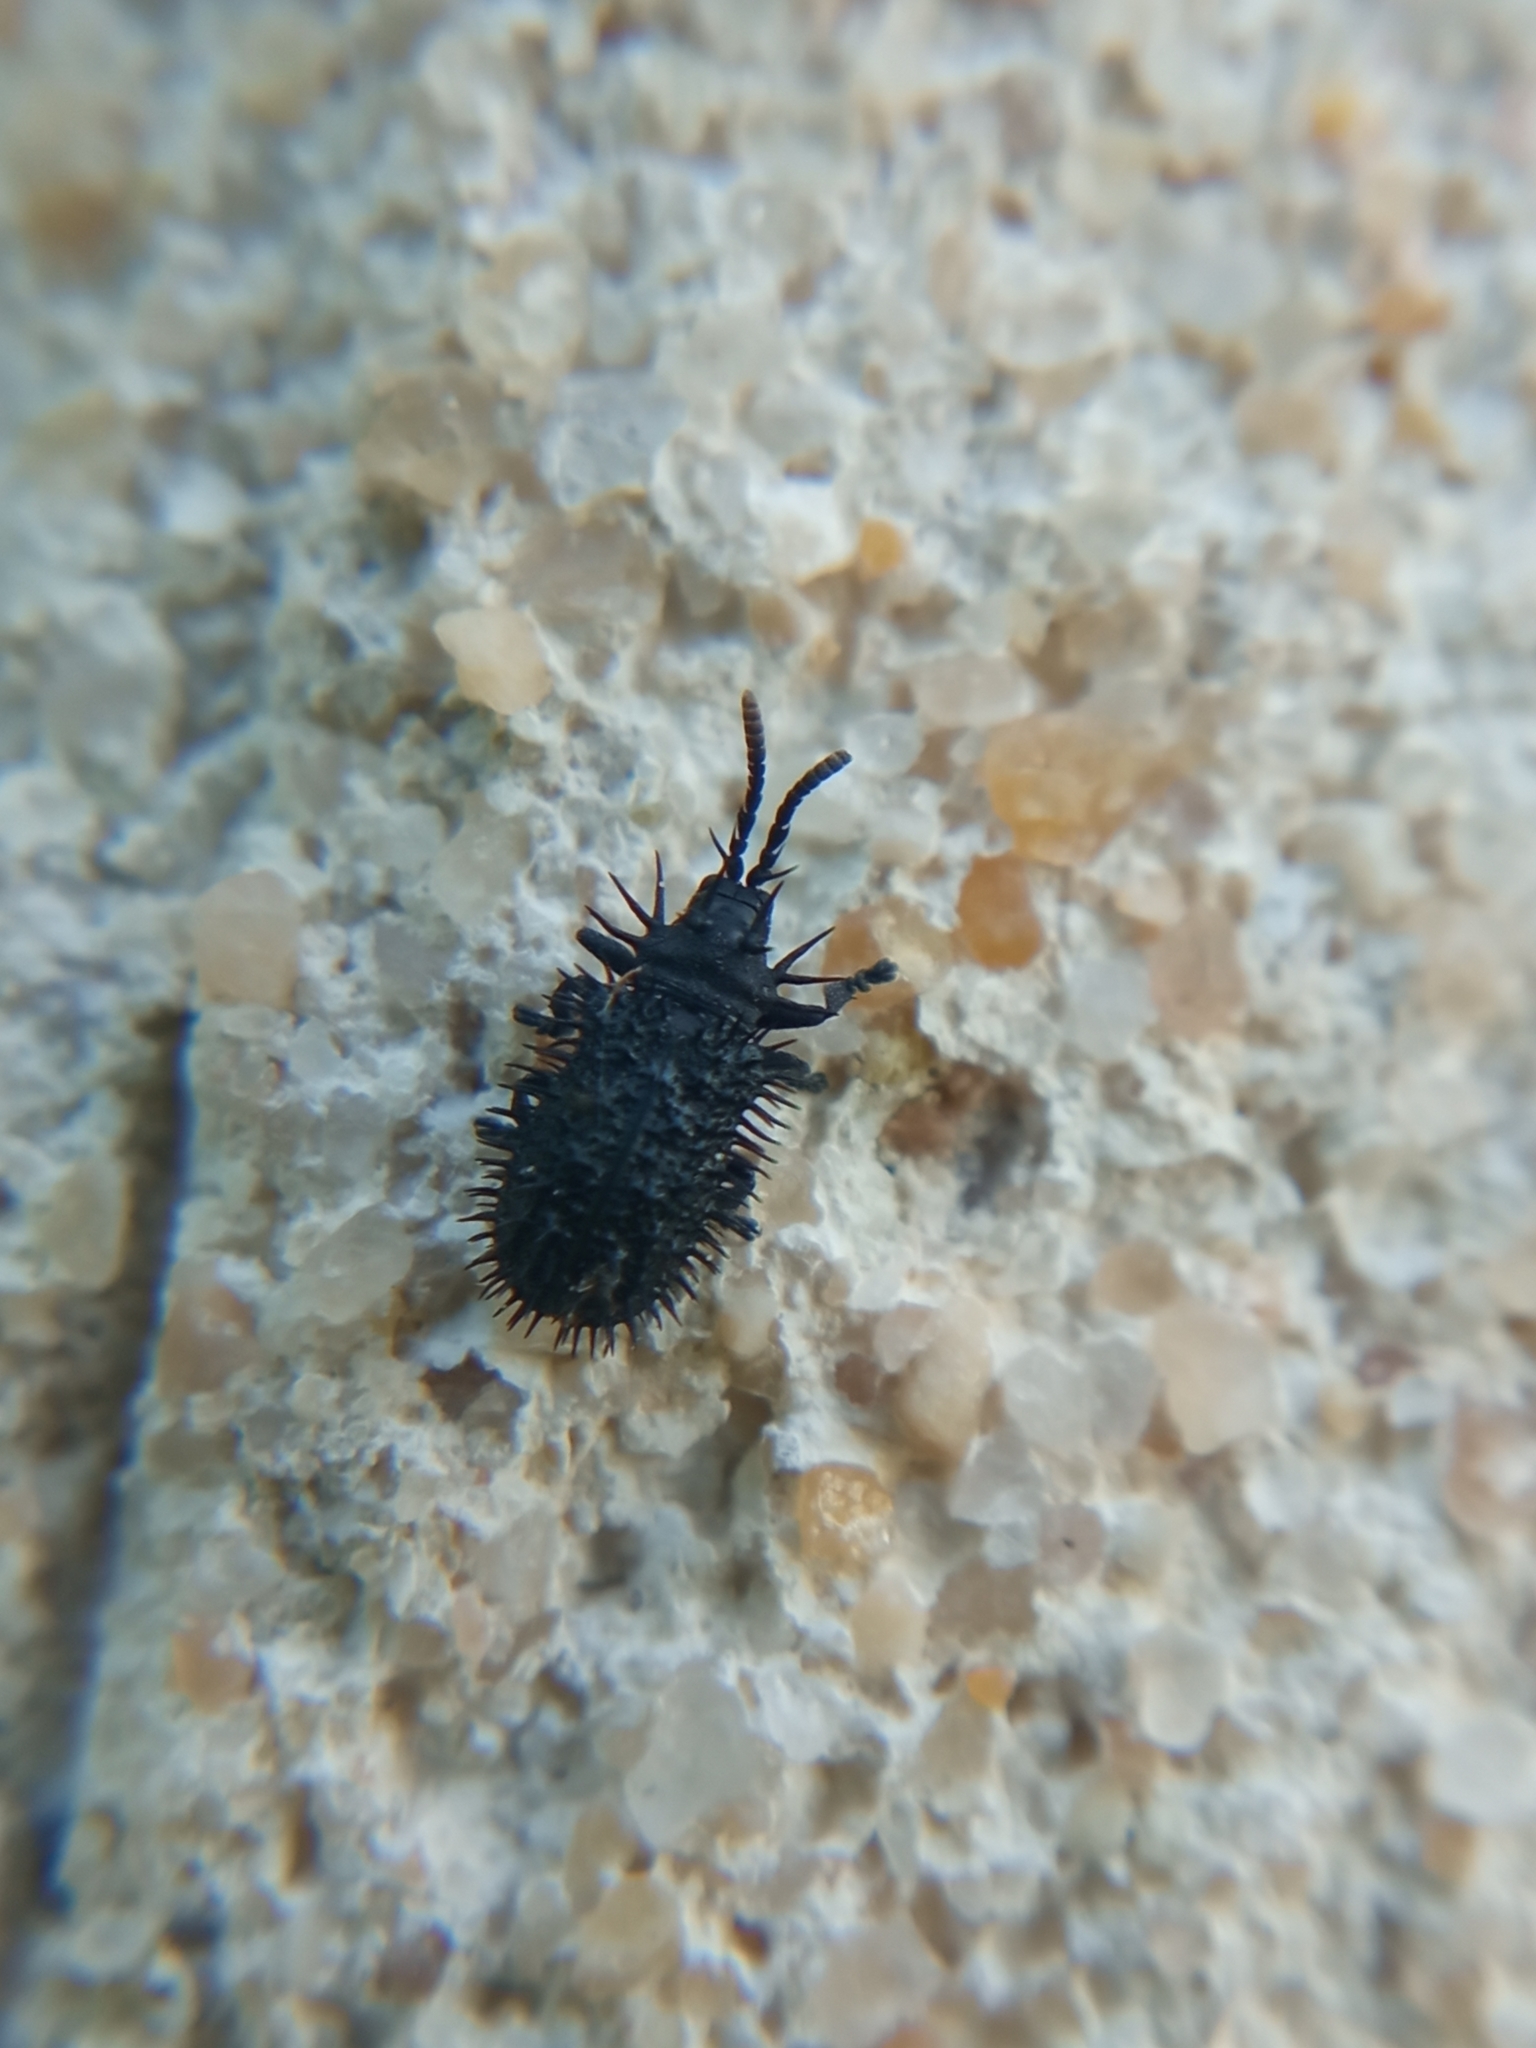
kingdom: Animalia
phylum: Arthropoda
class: Insecta
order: Coleoptera
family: Chrysomelidae
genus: Hispa
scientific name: Hispa atra
